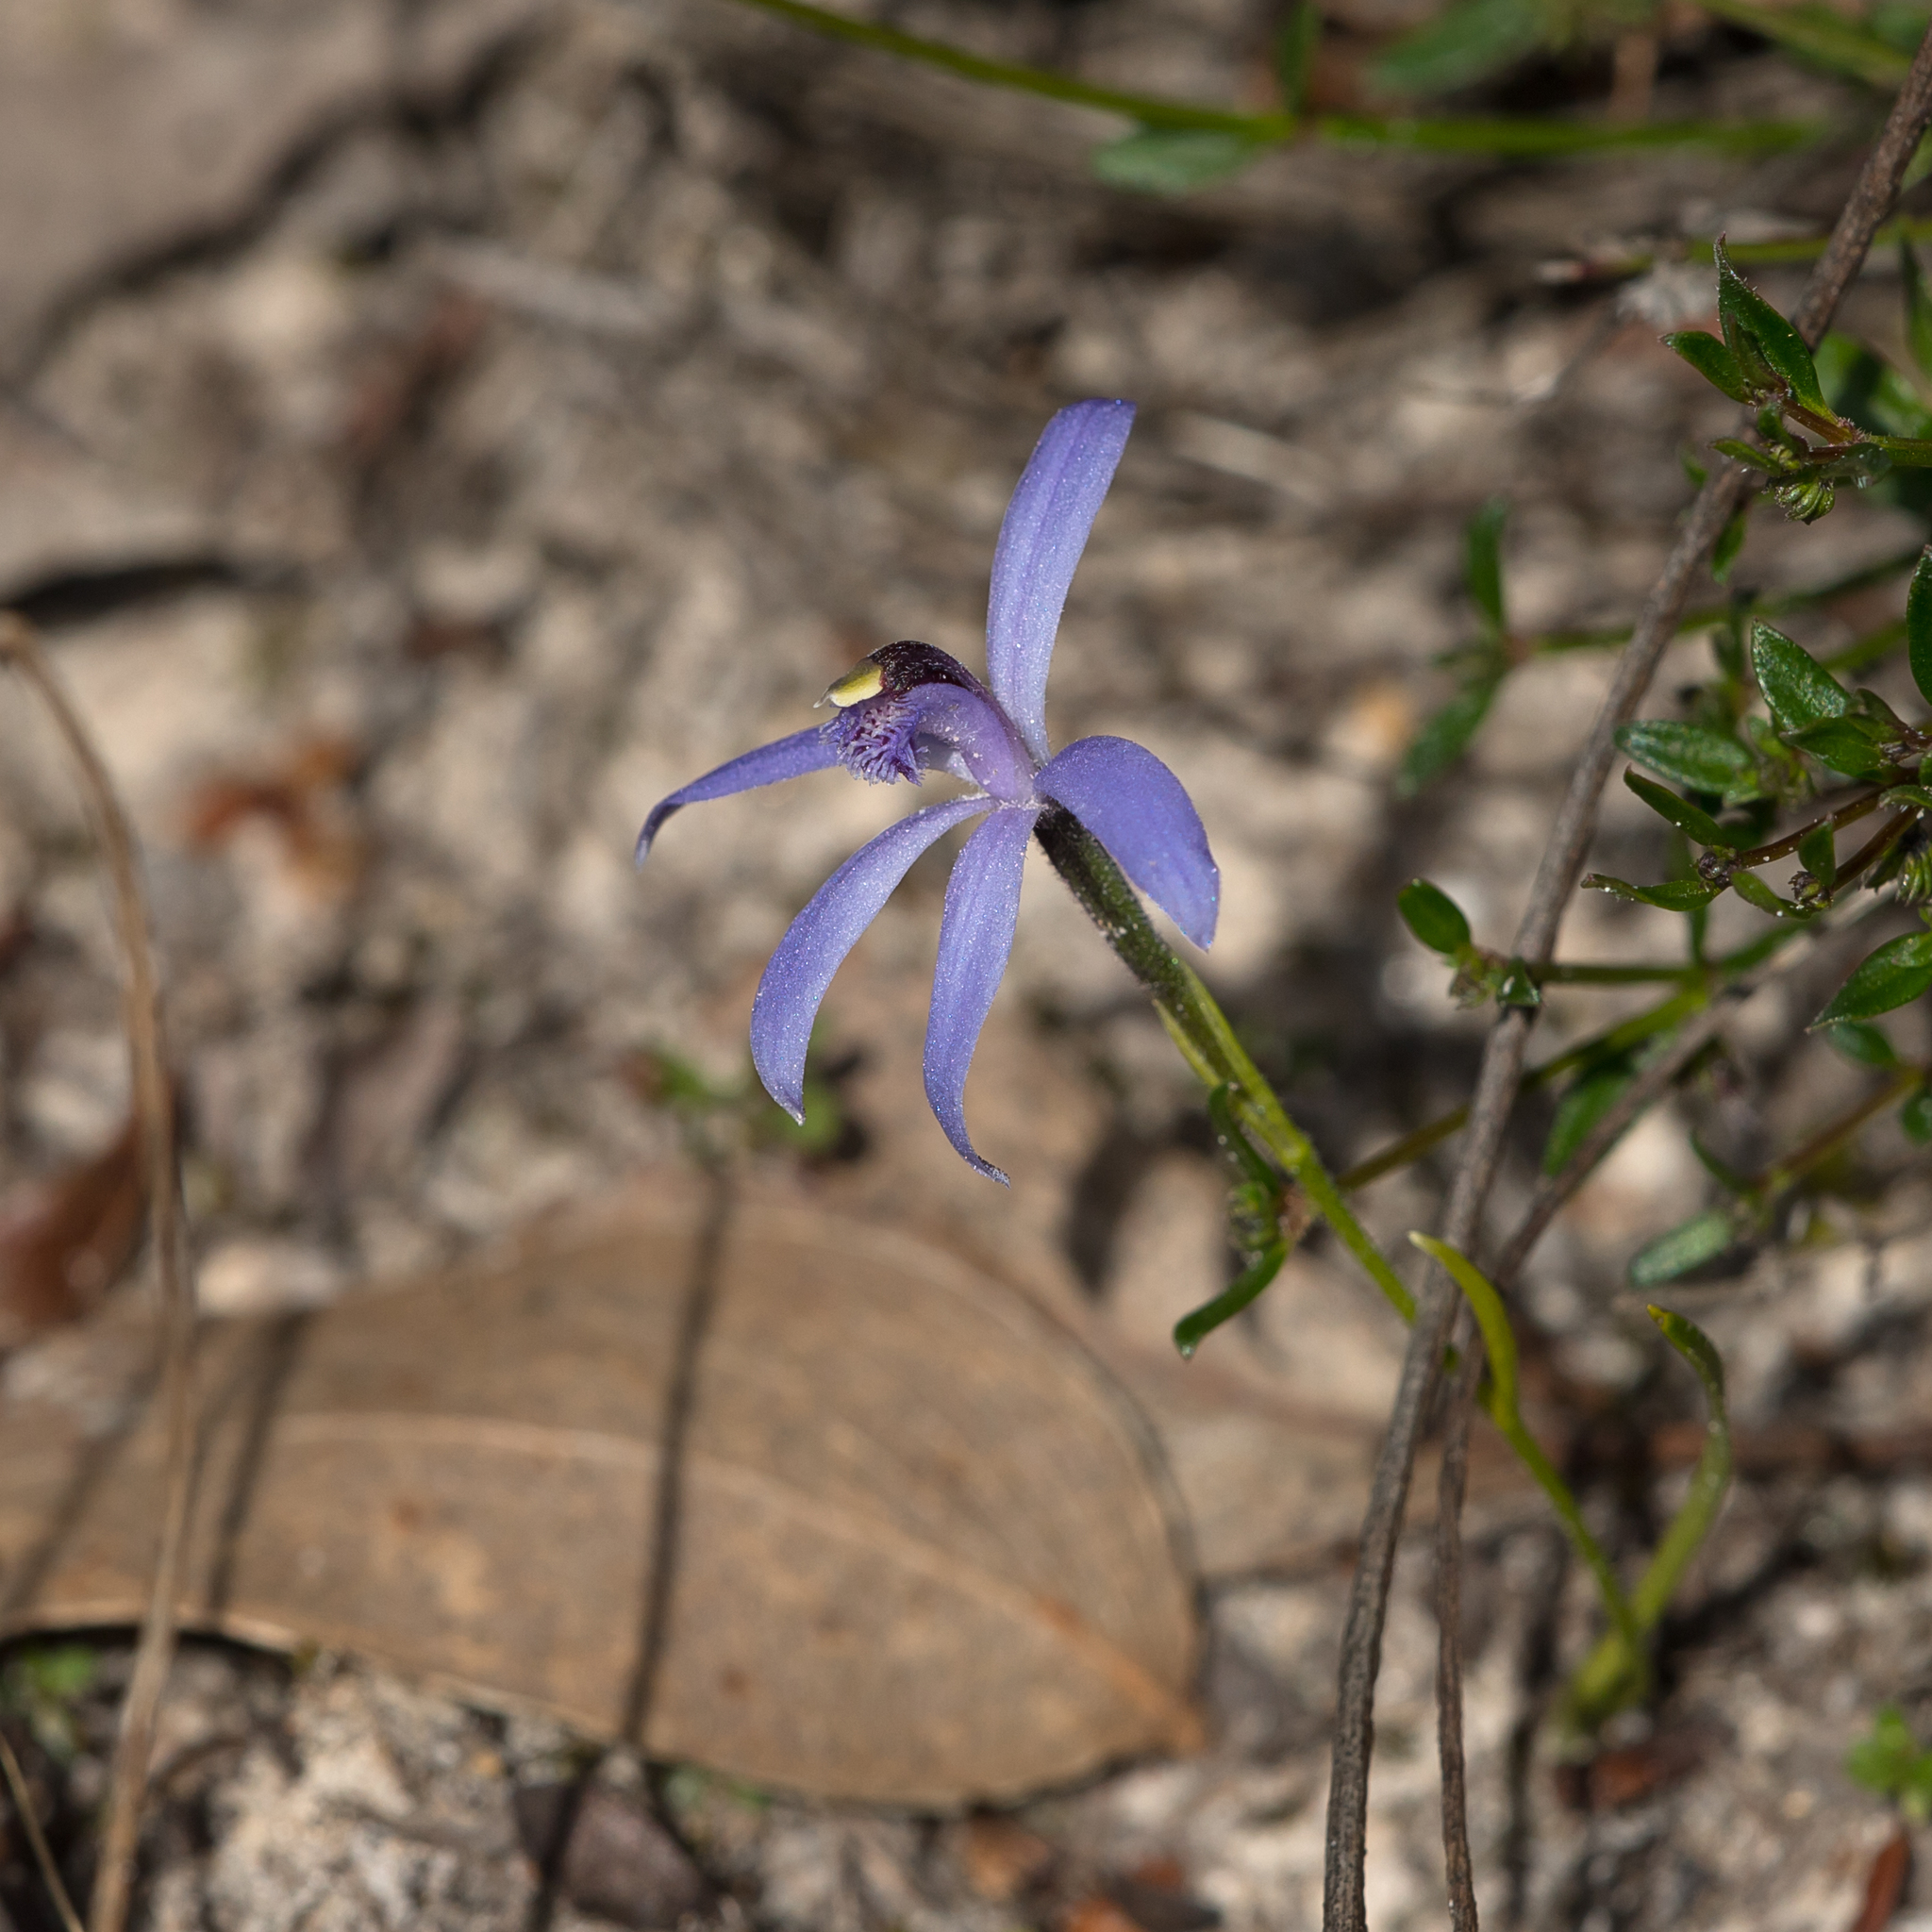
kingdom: Plantae
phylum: Tracheophyta
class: Liliopsida
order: Asparagales
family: Orchidaceae
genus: Pheladenia
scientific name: Pheladenia deformis
